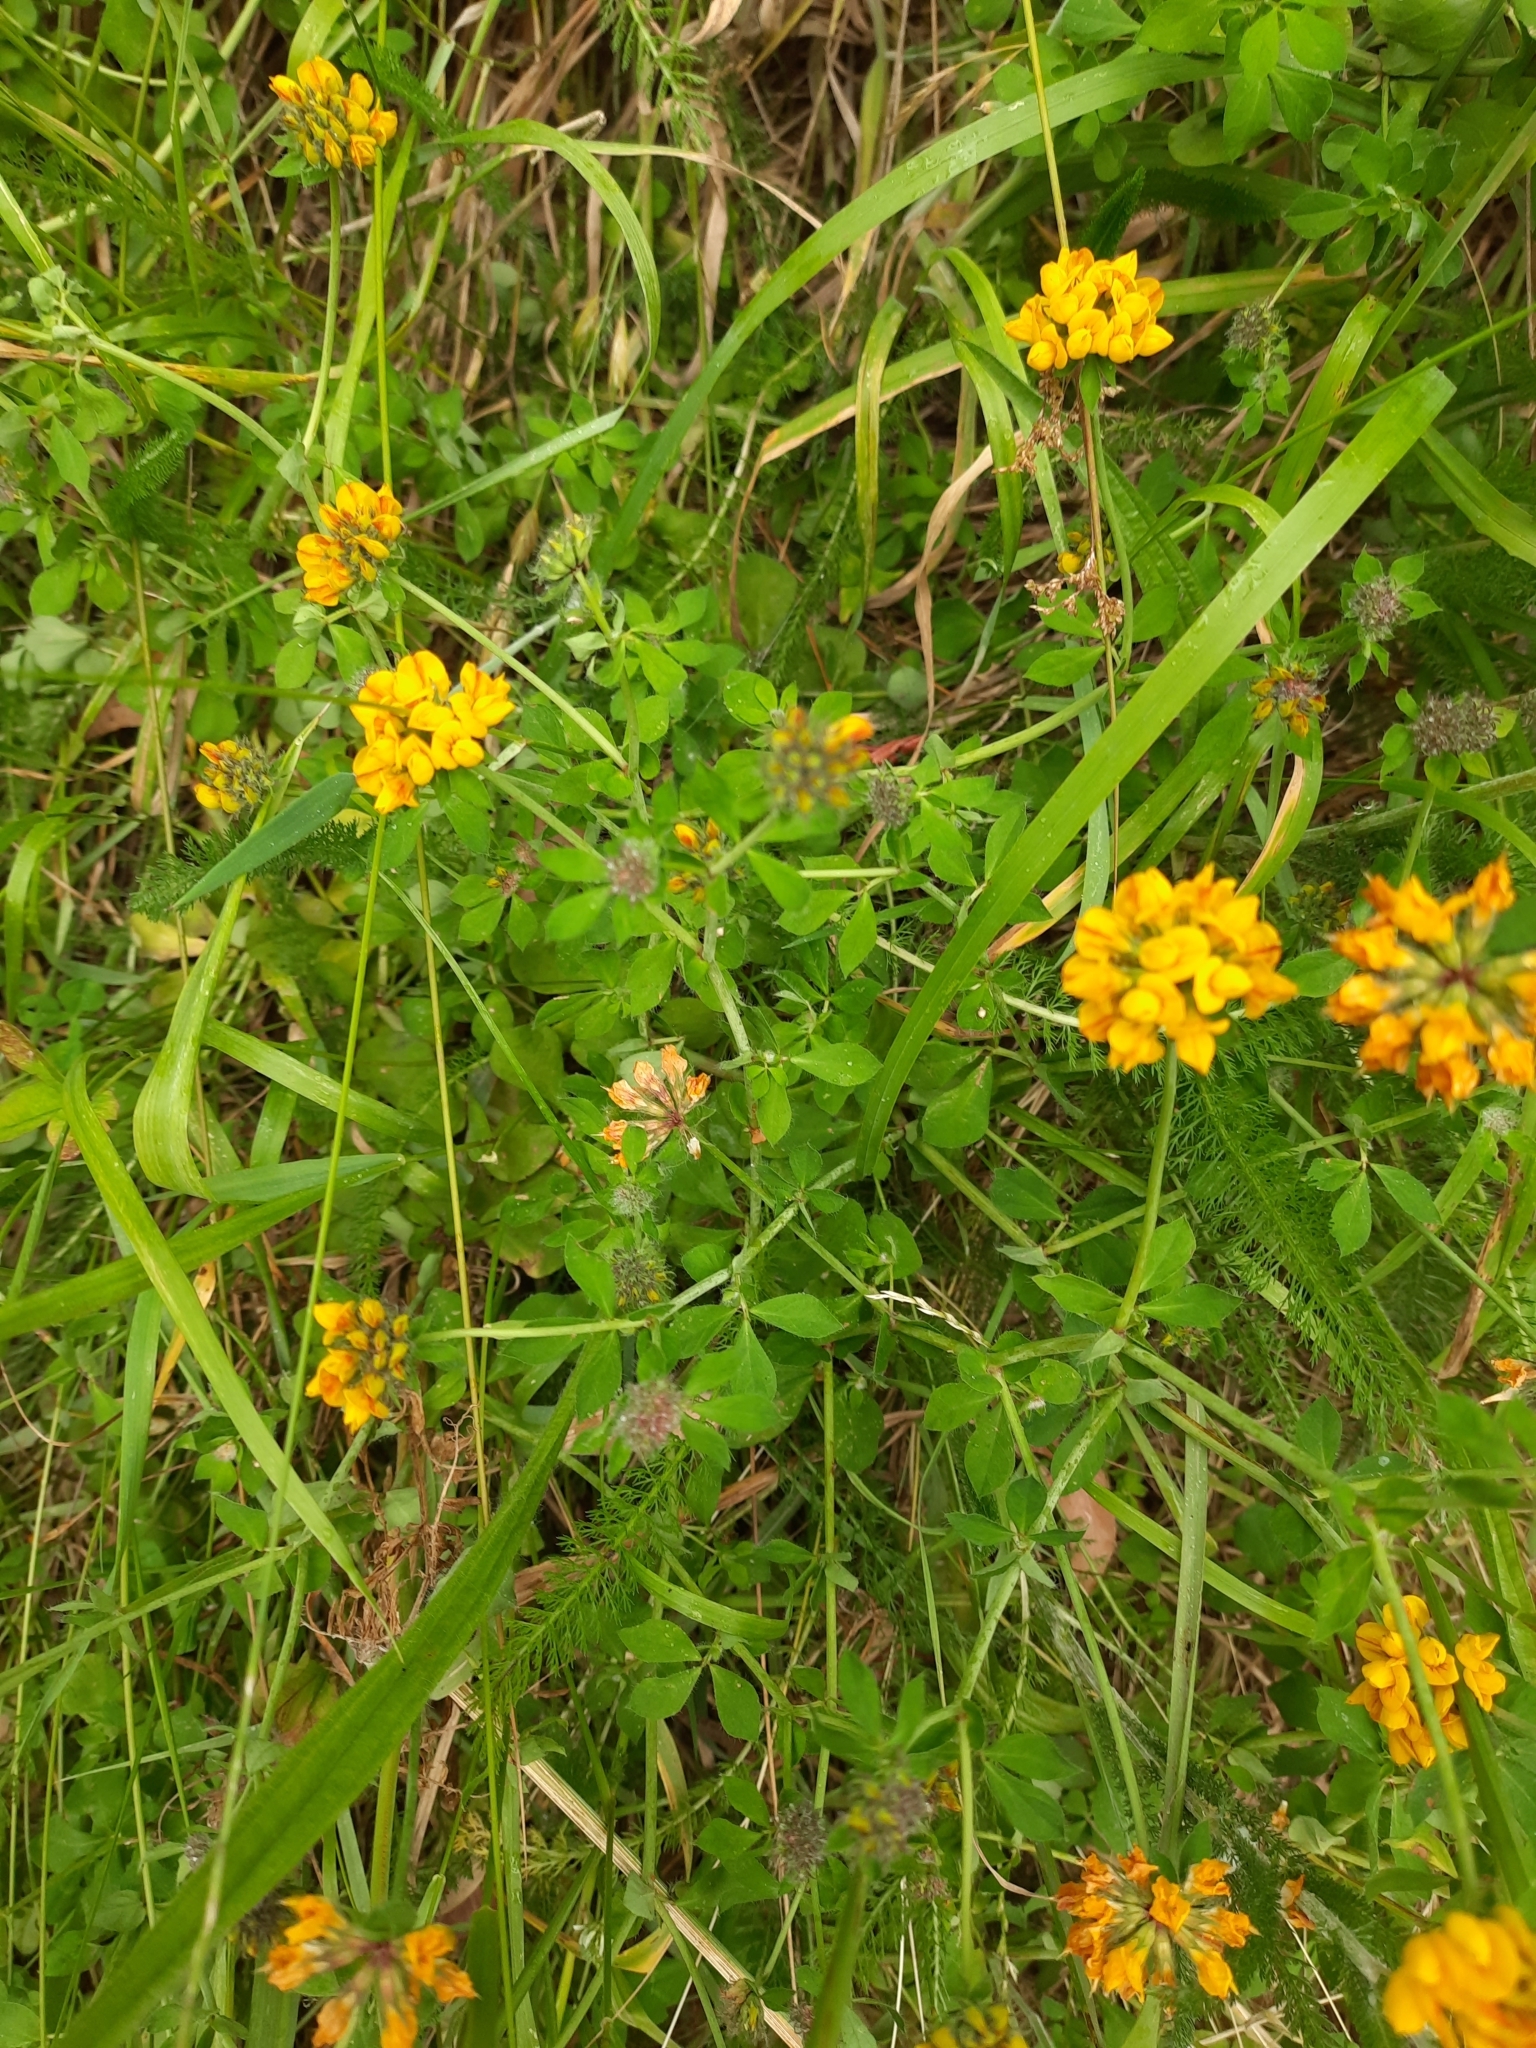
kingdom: Plantae
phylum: Tracheophyta
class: Magnoliopsida
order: Fabales
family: Fabaceae
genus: Lotus
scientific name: Lotus pedunculatus
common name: Greater birdsfoot-trefoil
